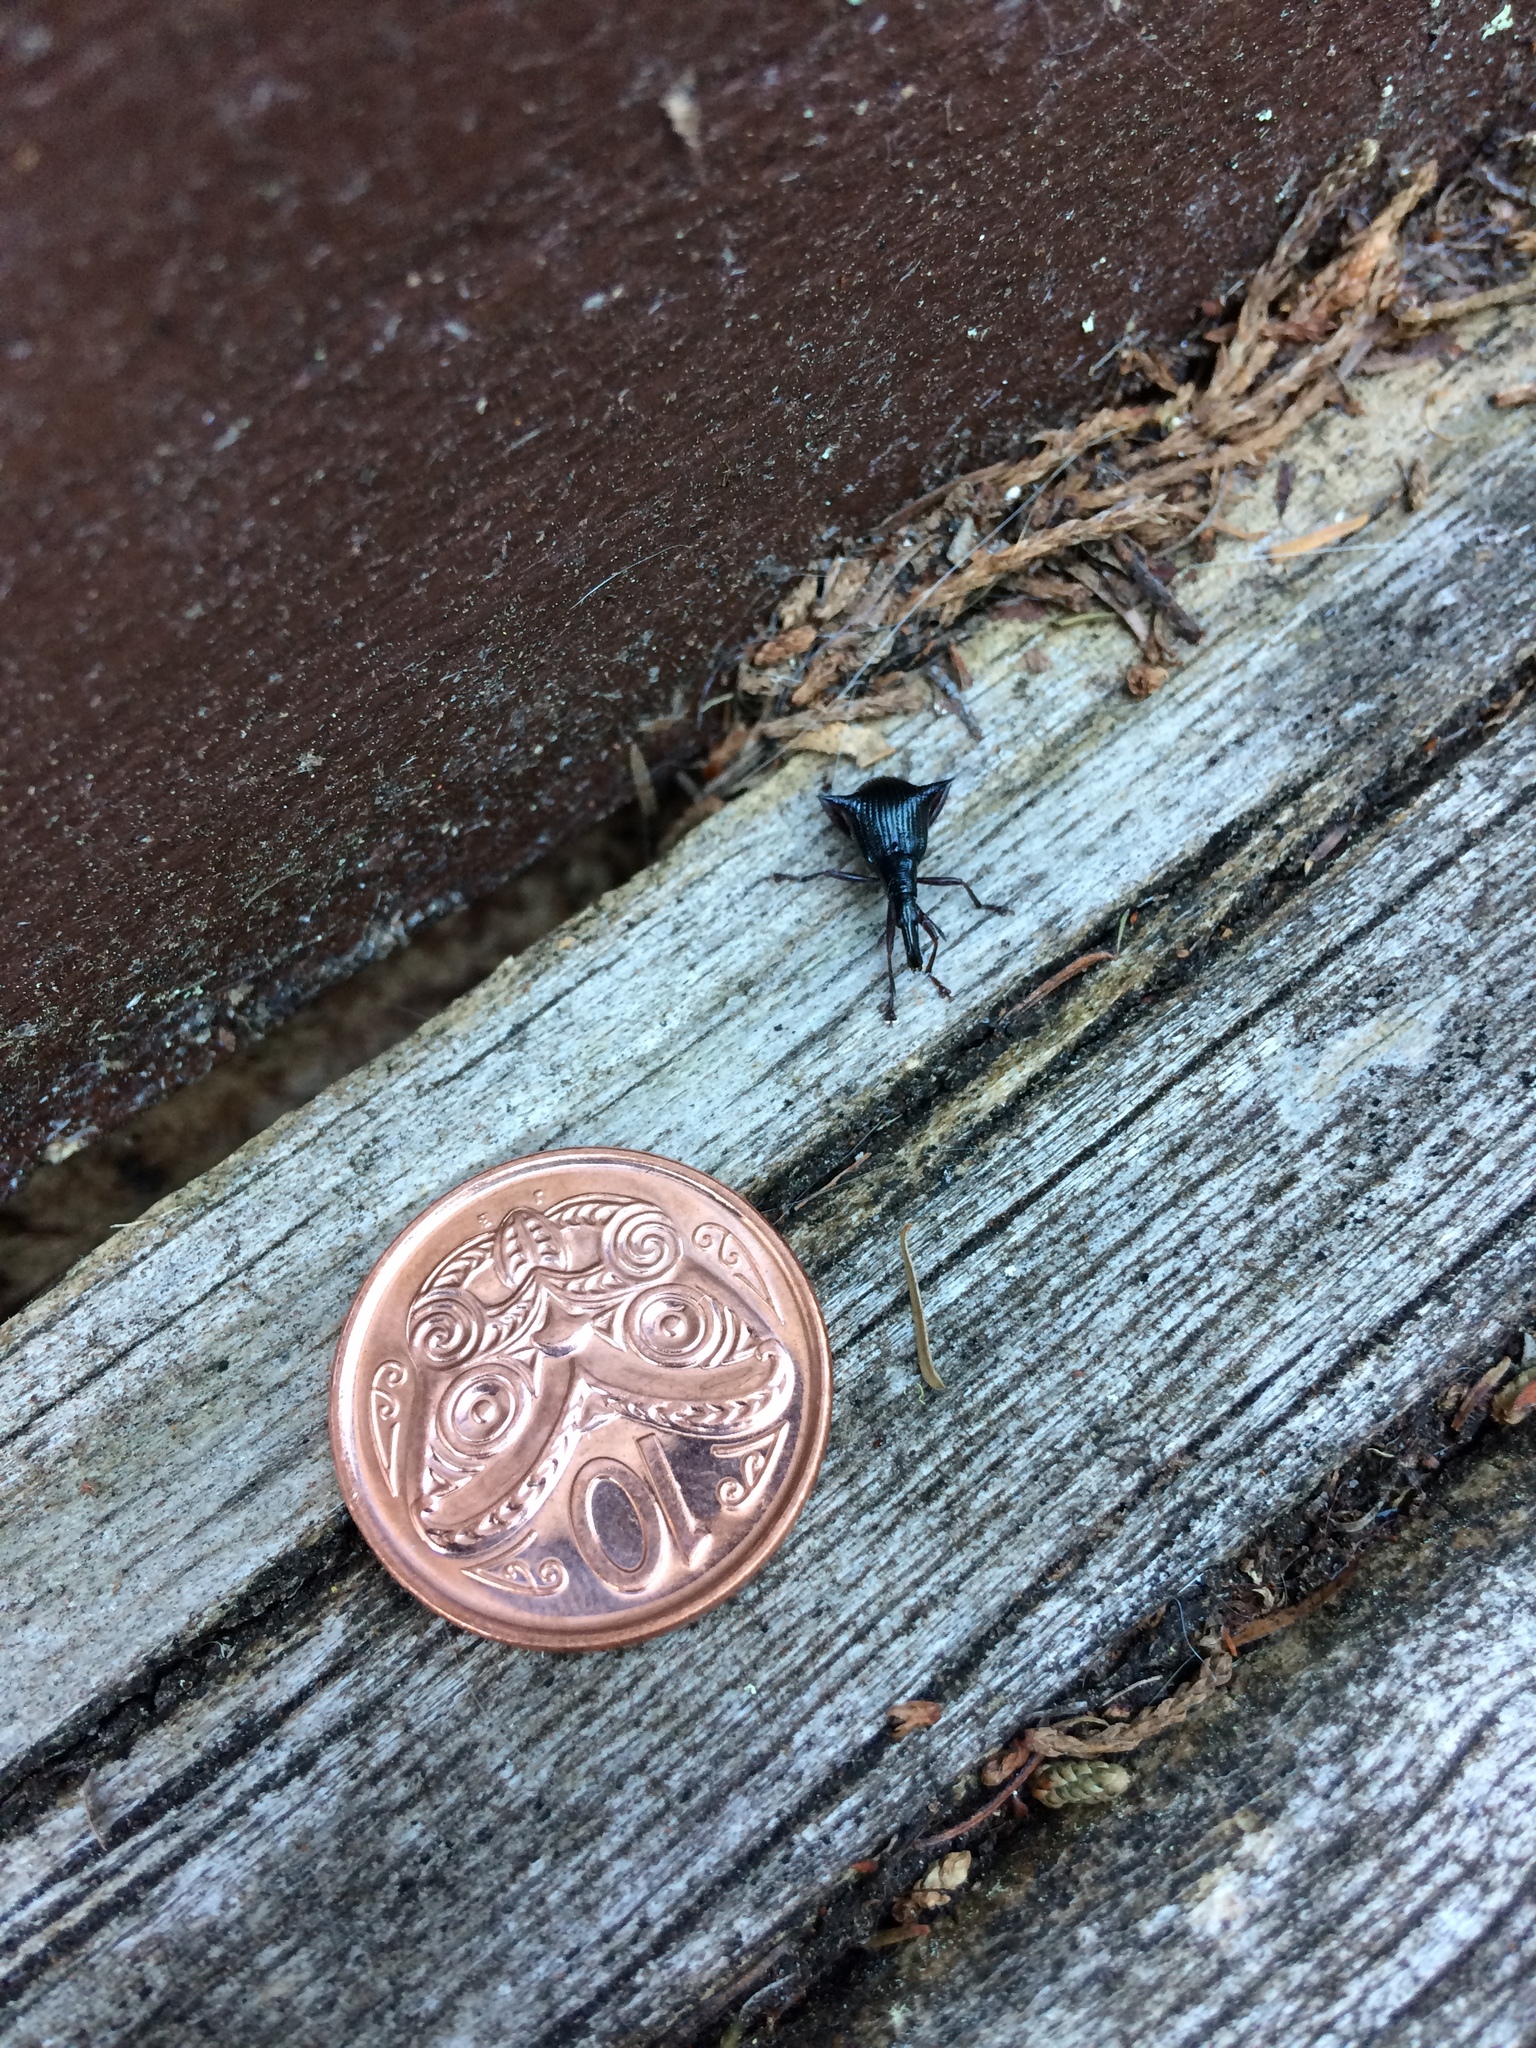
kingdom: Animalia
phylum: Arthropoda
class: Insecta
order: Coleoptera
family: Curculionidae
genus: Nyxetes
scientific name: Nyxetes bidens
